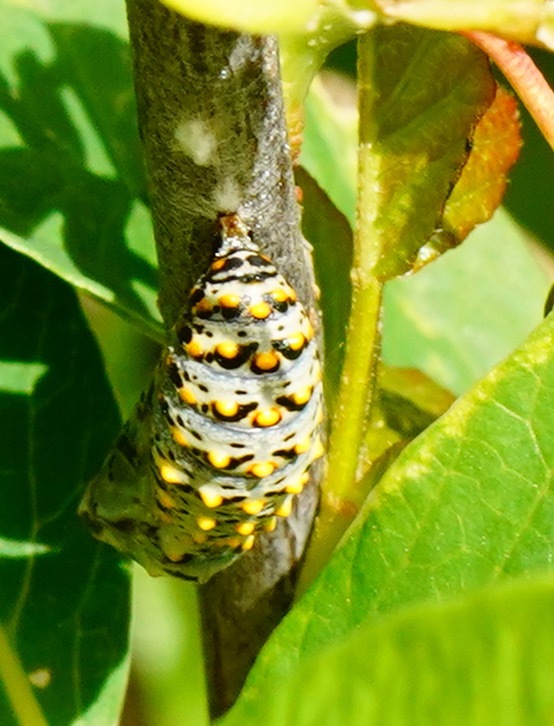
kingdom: Animalia
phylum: Arthropoda
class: Insecta
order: Lepidoptera
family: Nymphalidae
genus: Occidryas
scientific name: Occidryas chalcedona
